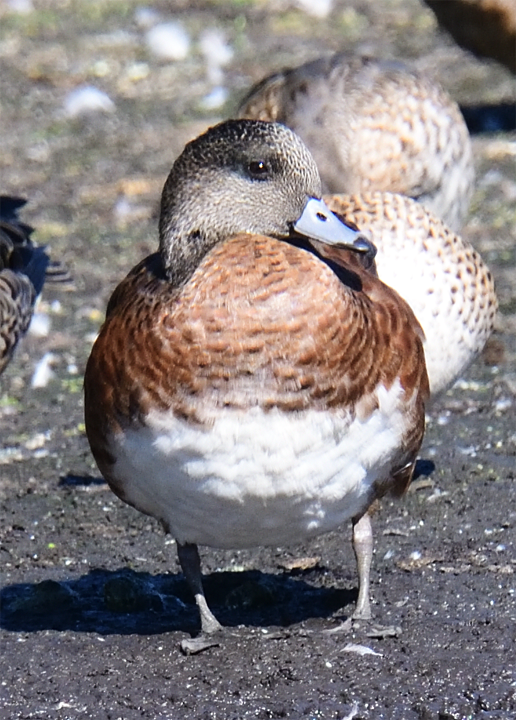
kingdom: Animalia
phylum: Chordata
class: Aves
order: Anseriformes
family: Anatidae
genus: Mareca
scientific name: Mareca americana
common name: American wigeon
